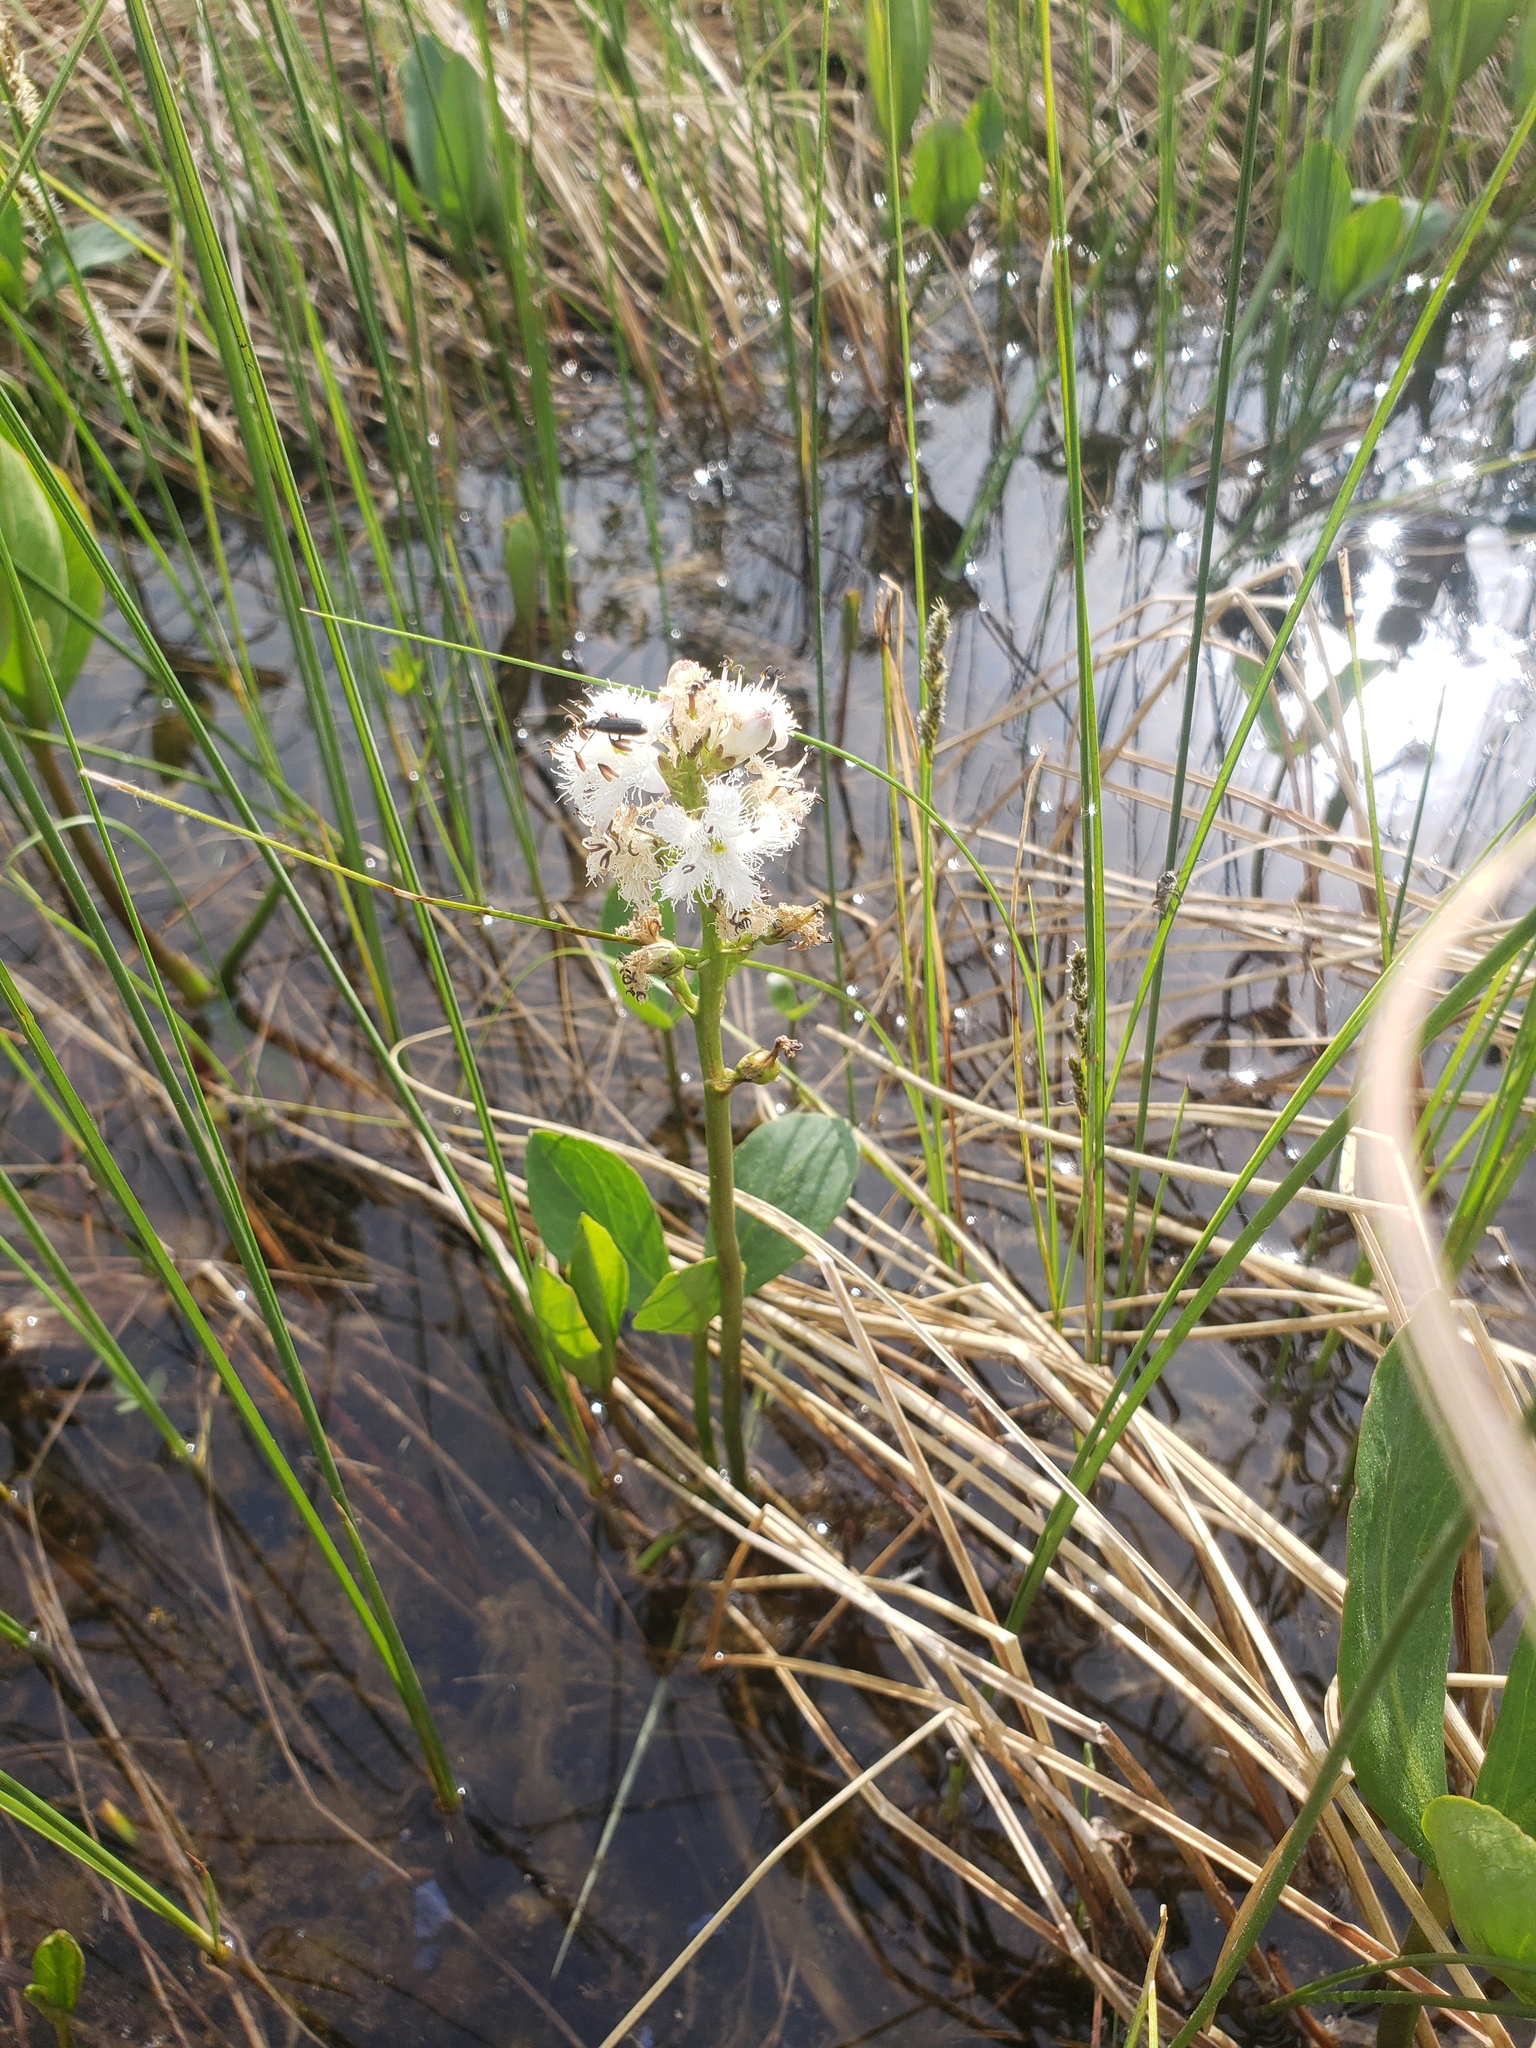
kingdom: Plantae
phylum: Tracheophyta
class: Magnoliopsida
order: Asterales
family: Menyanthaceae
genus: Menyanthes
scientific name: Menyanthes trifoliata
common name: Bogbean
